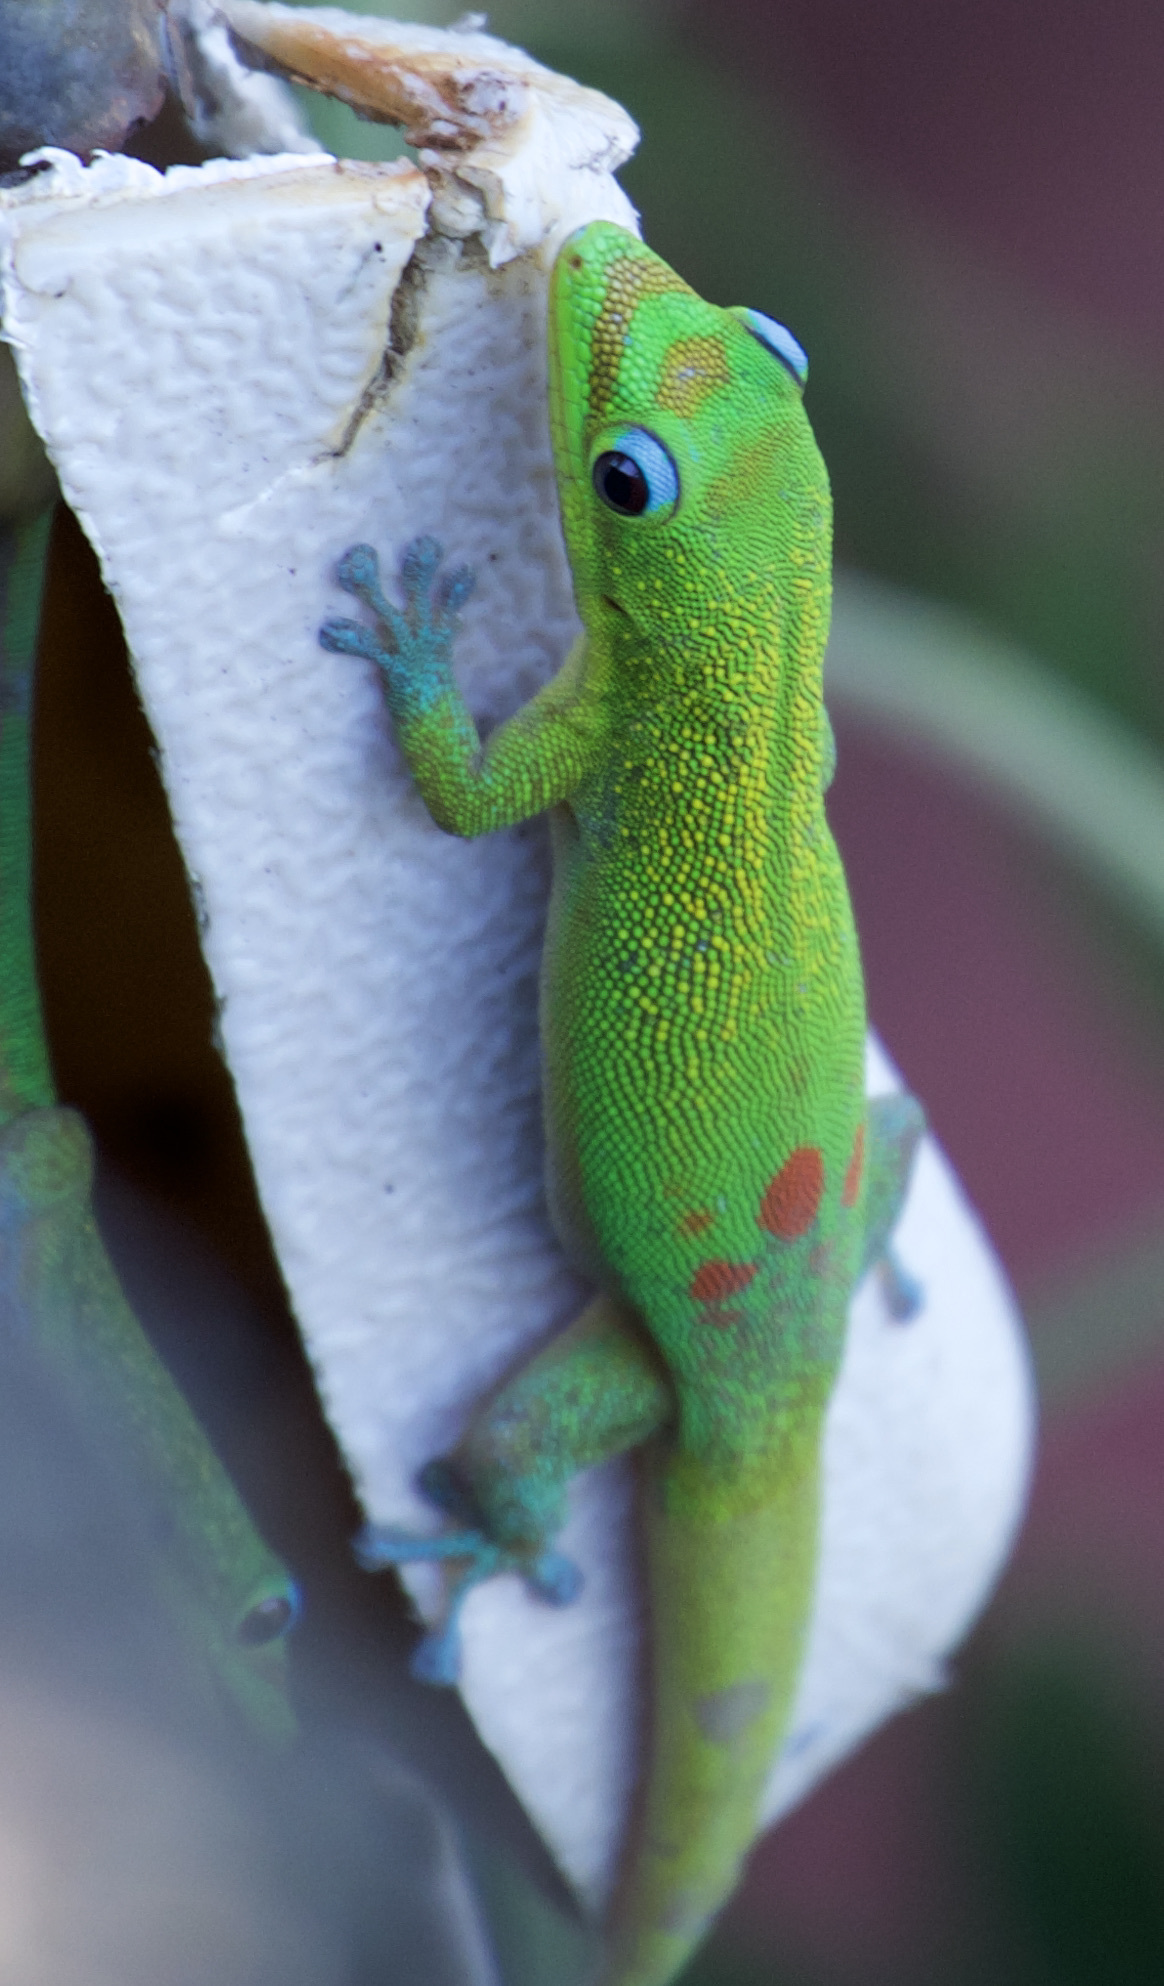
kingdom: Animalia
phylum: Chordata
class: Squamata
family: Gekkonidae
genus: Phelsuma
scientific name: Phelsuma laticauda
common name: Gold dust day gecko
